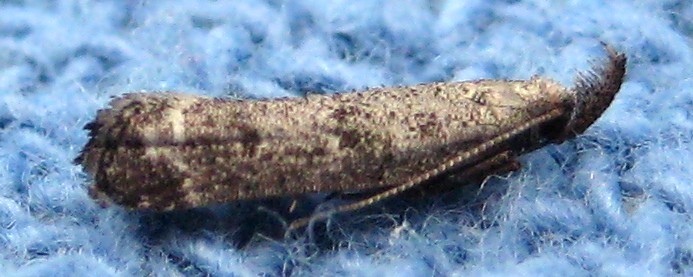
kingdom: Animalia
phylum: Arthropoda
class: Insecta
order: Lepidoptera
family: Gelechiidae
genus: Dichomeris
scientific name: Dichomeris inversella
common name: Inverse dichomeris moth
